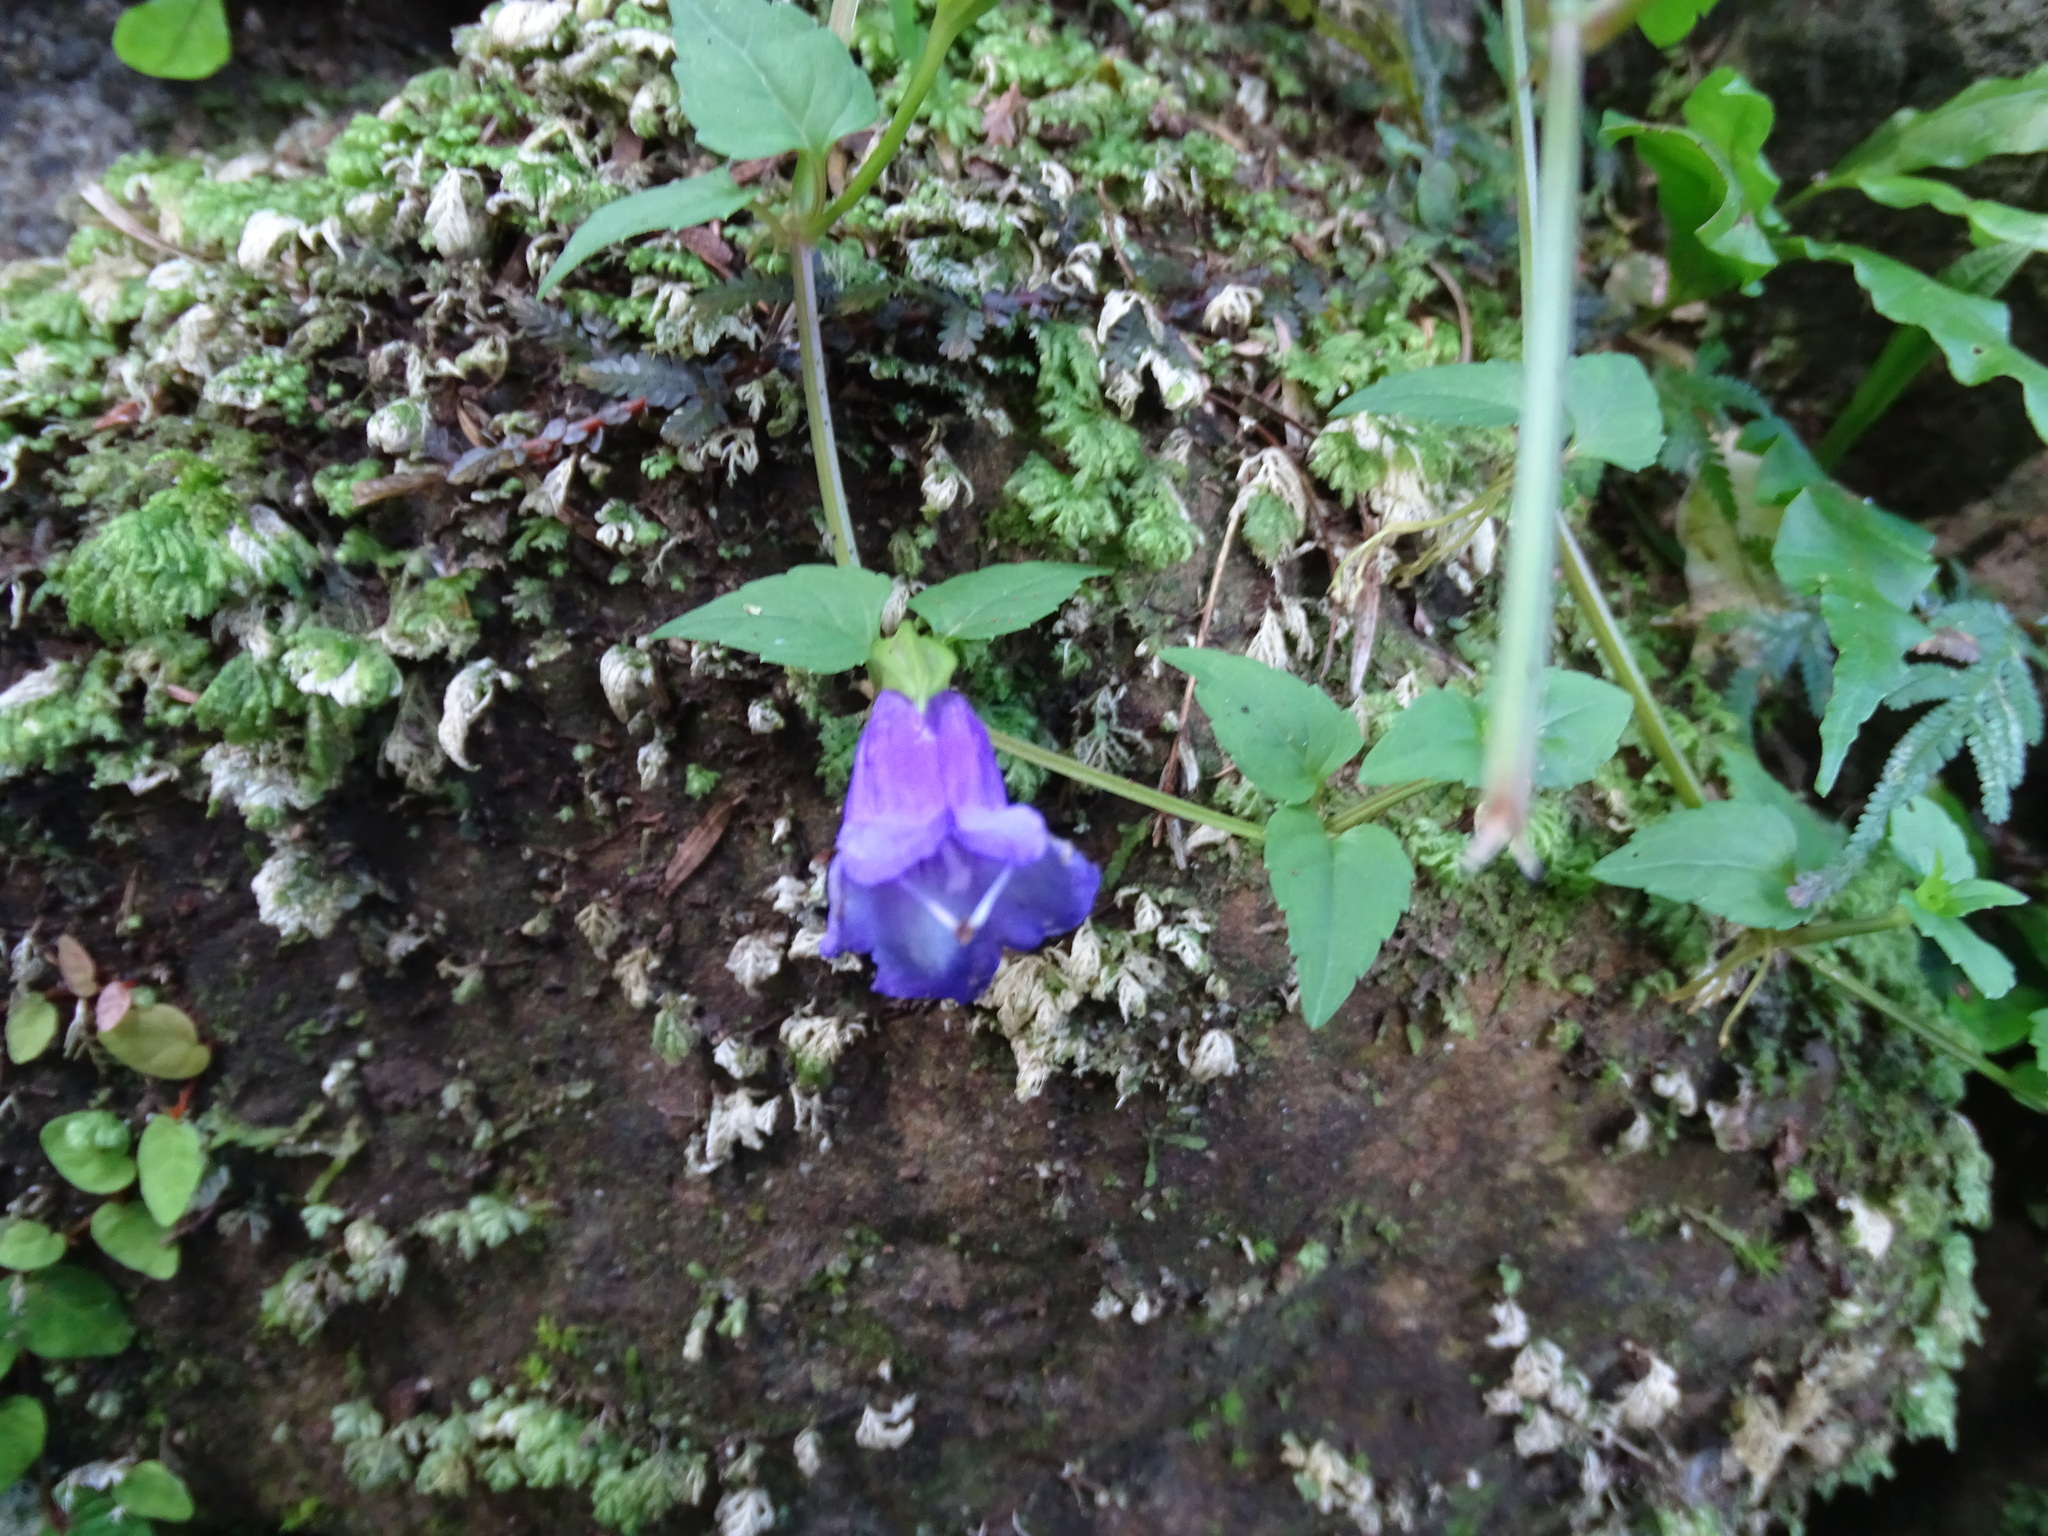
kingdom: Plantae
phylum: Tracheophyta
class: Magnoliopsida
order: Lamiales
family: Linderniaceae
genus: Torenia
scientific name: Torenia concolor
